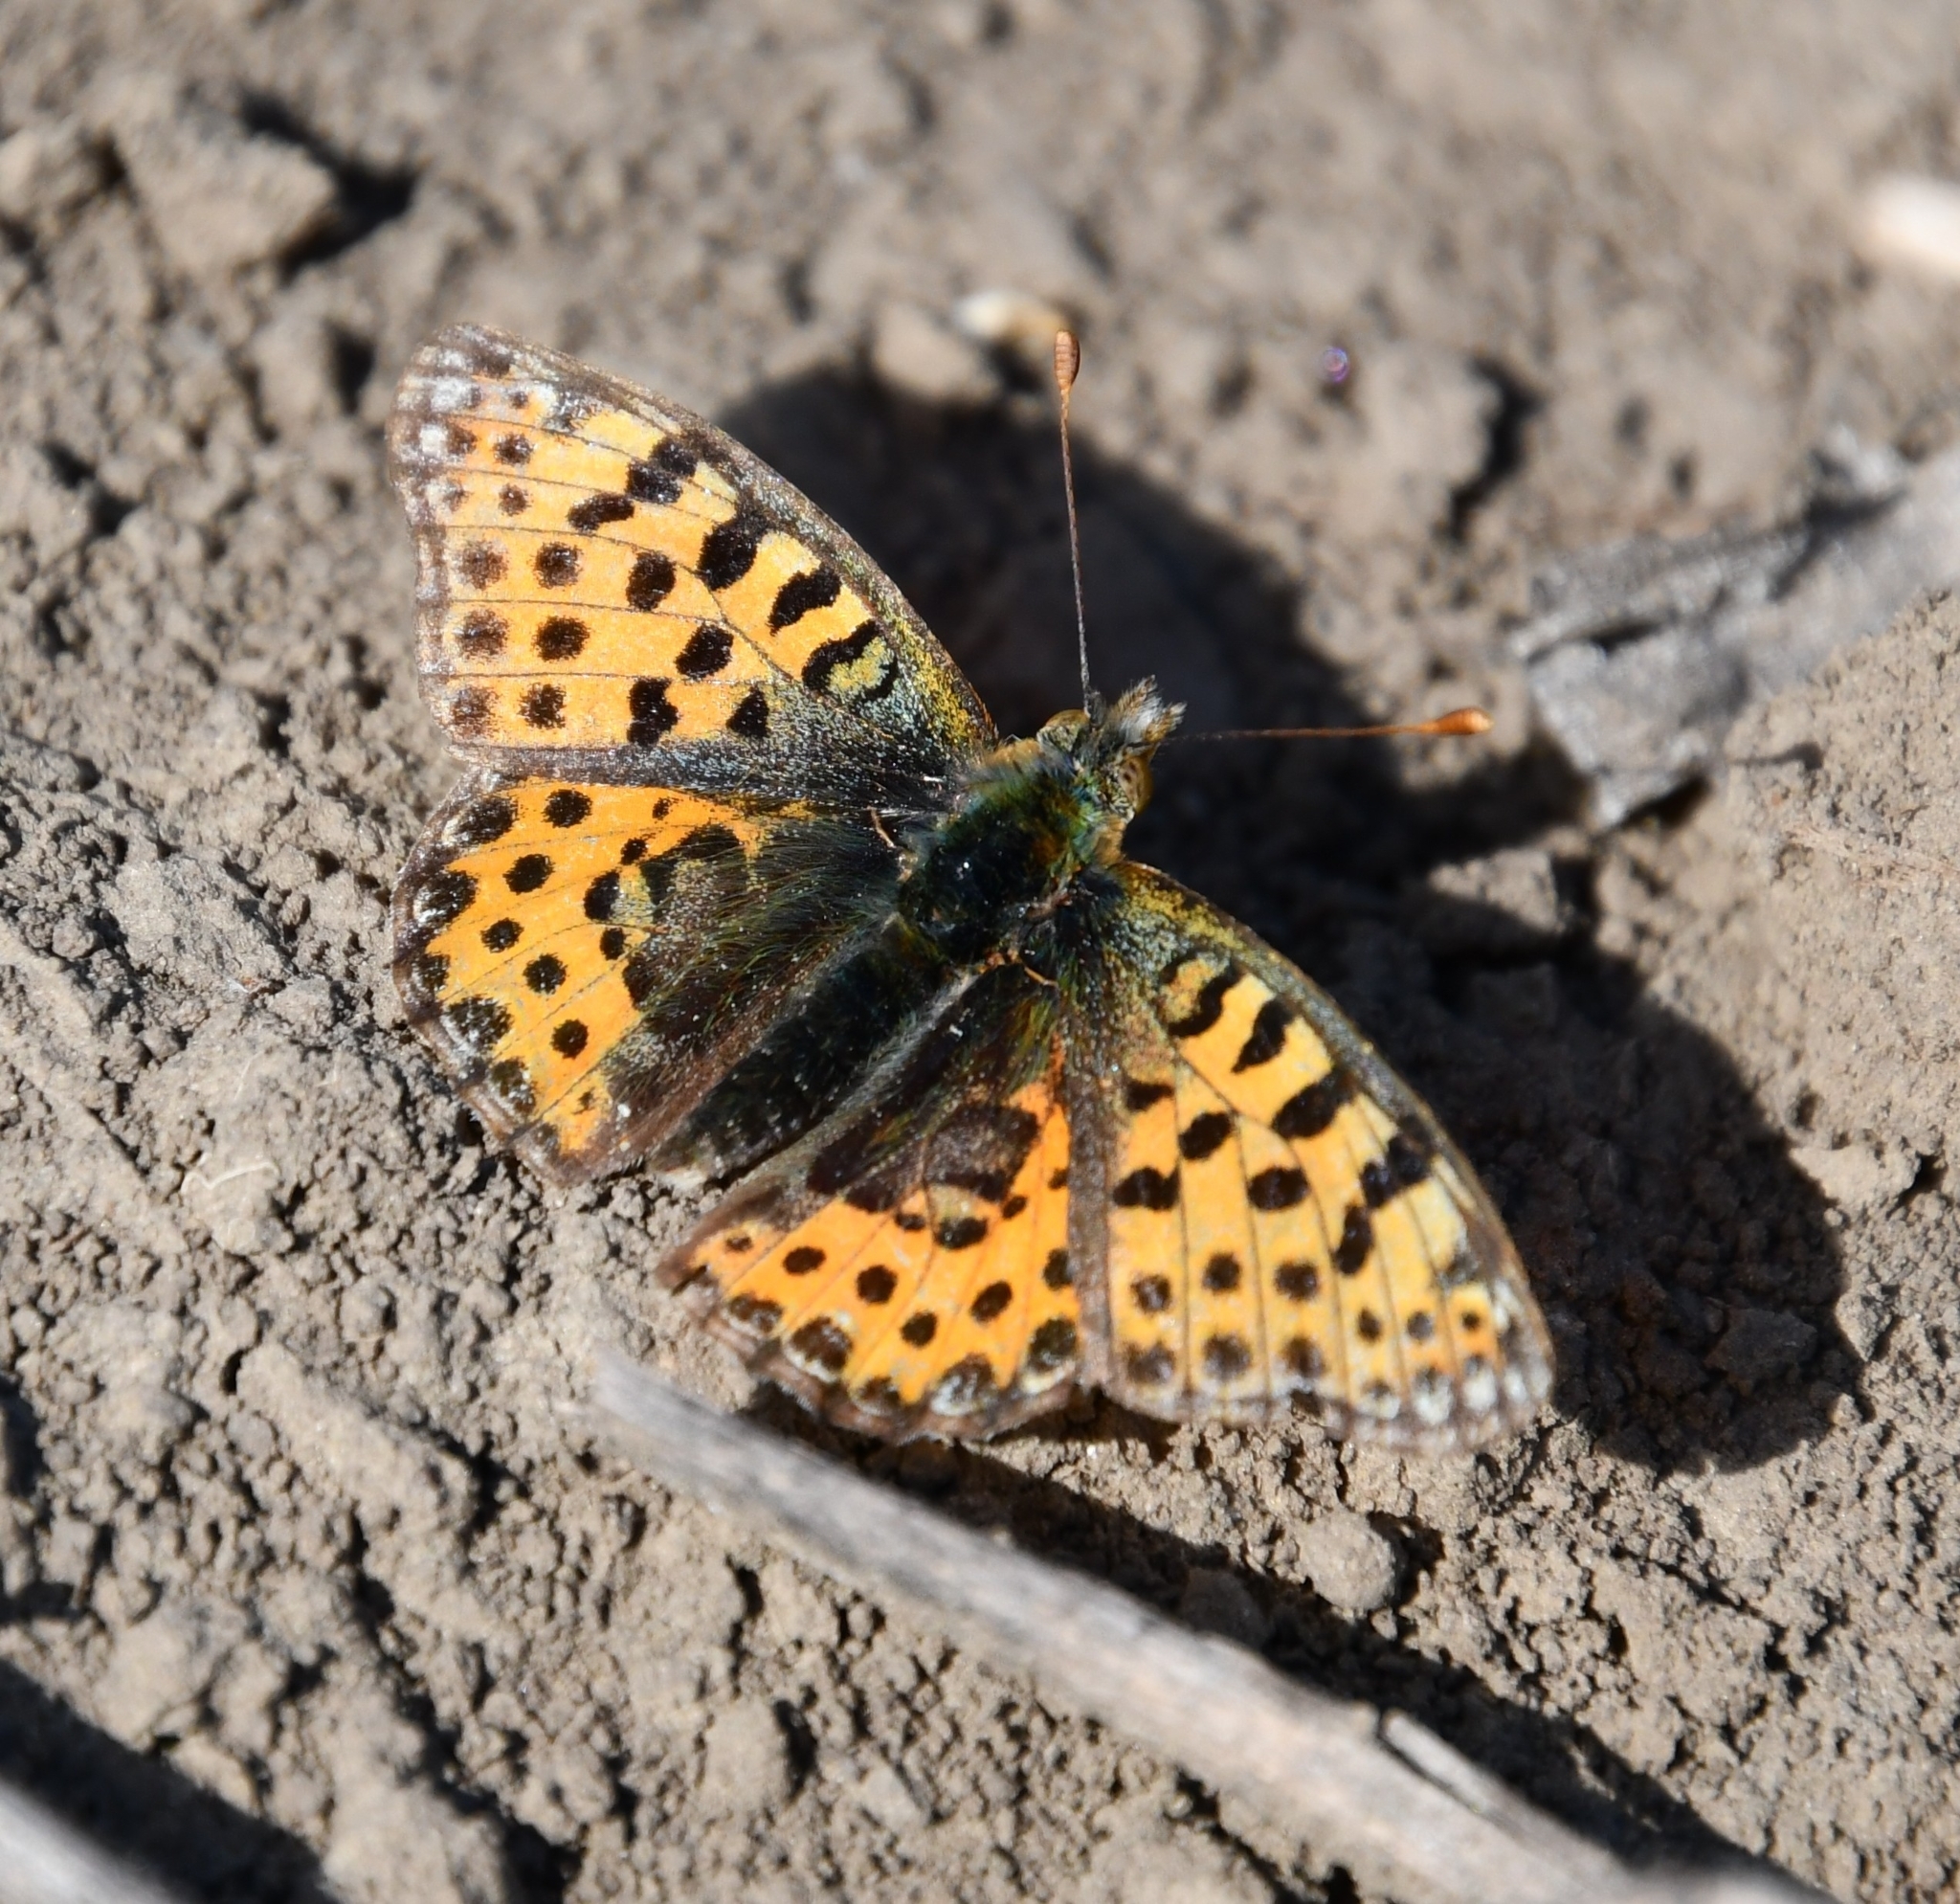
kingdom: Animalia
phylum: Arthropoda
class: Insecta
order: Lepidoptera
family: Nymphalidae
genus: Issoria
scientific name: Issoria lathonia
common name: Queen of spain fritillary
